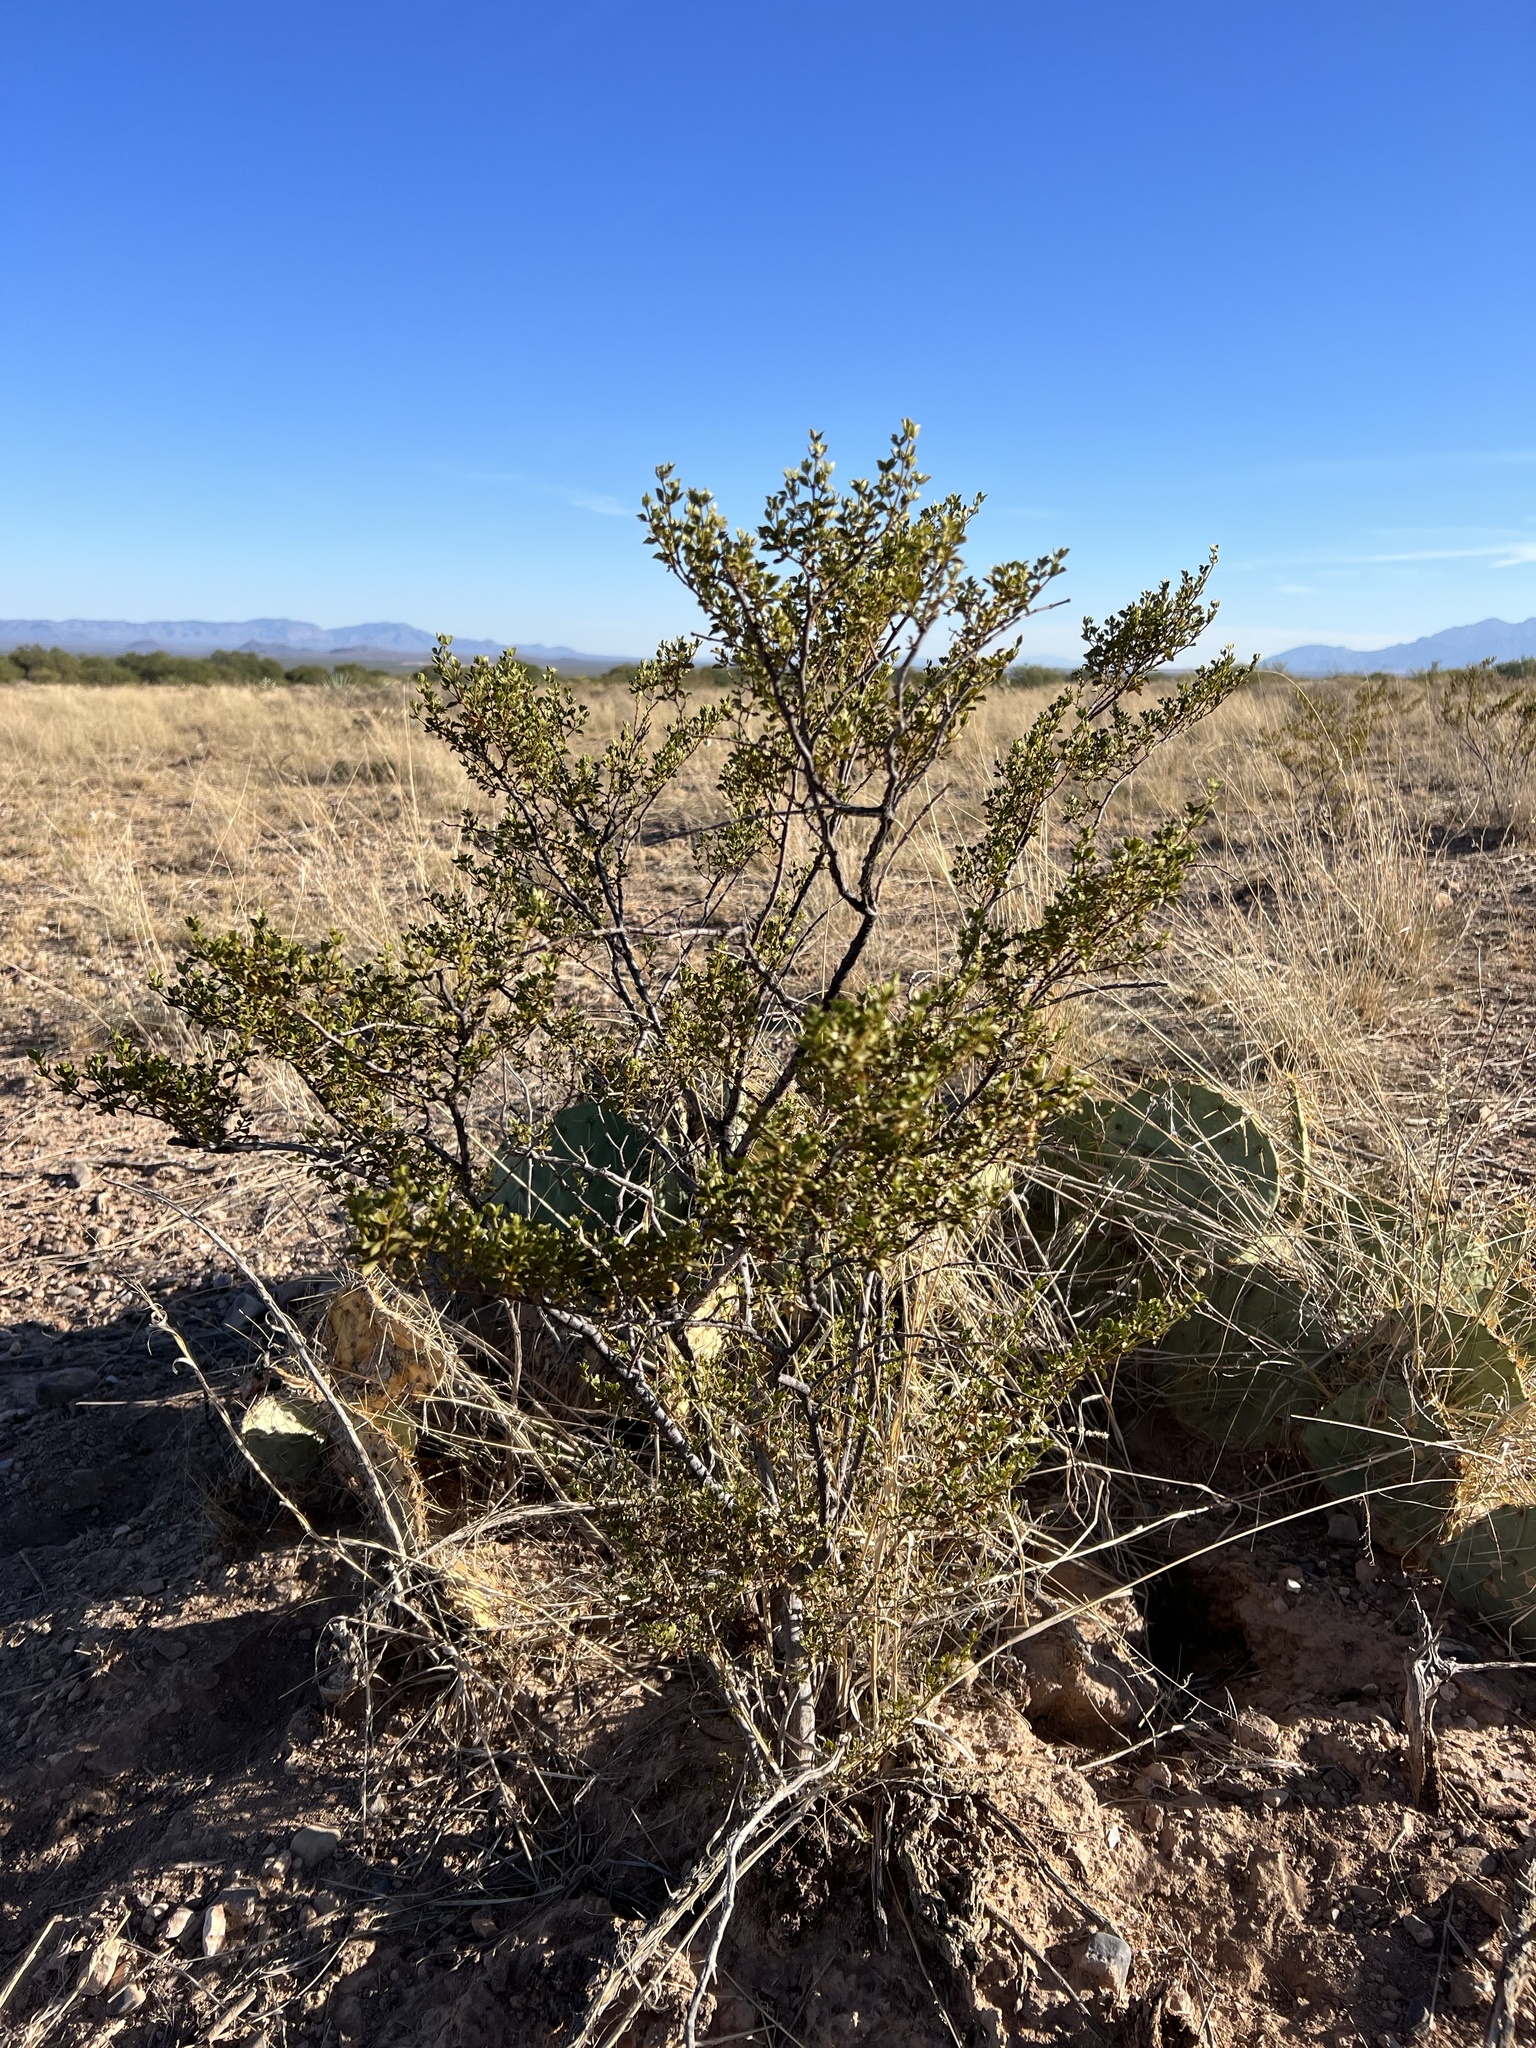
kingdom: Plantae
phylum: Tracheophyta
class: Magnoliopsida
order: Zygophyllales
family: Zygophyllaceae
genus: Larrea
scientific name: Larrea tridentata
